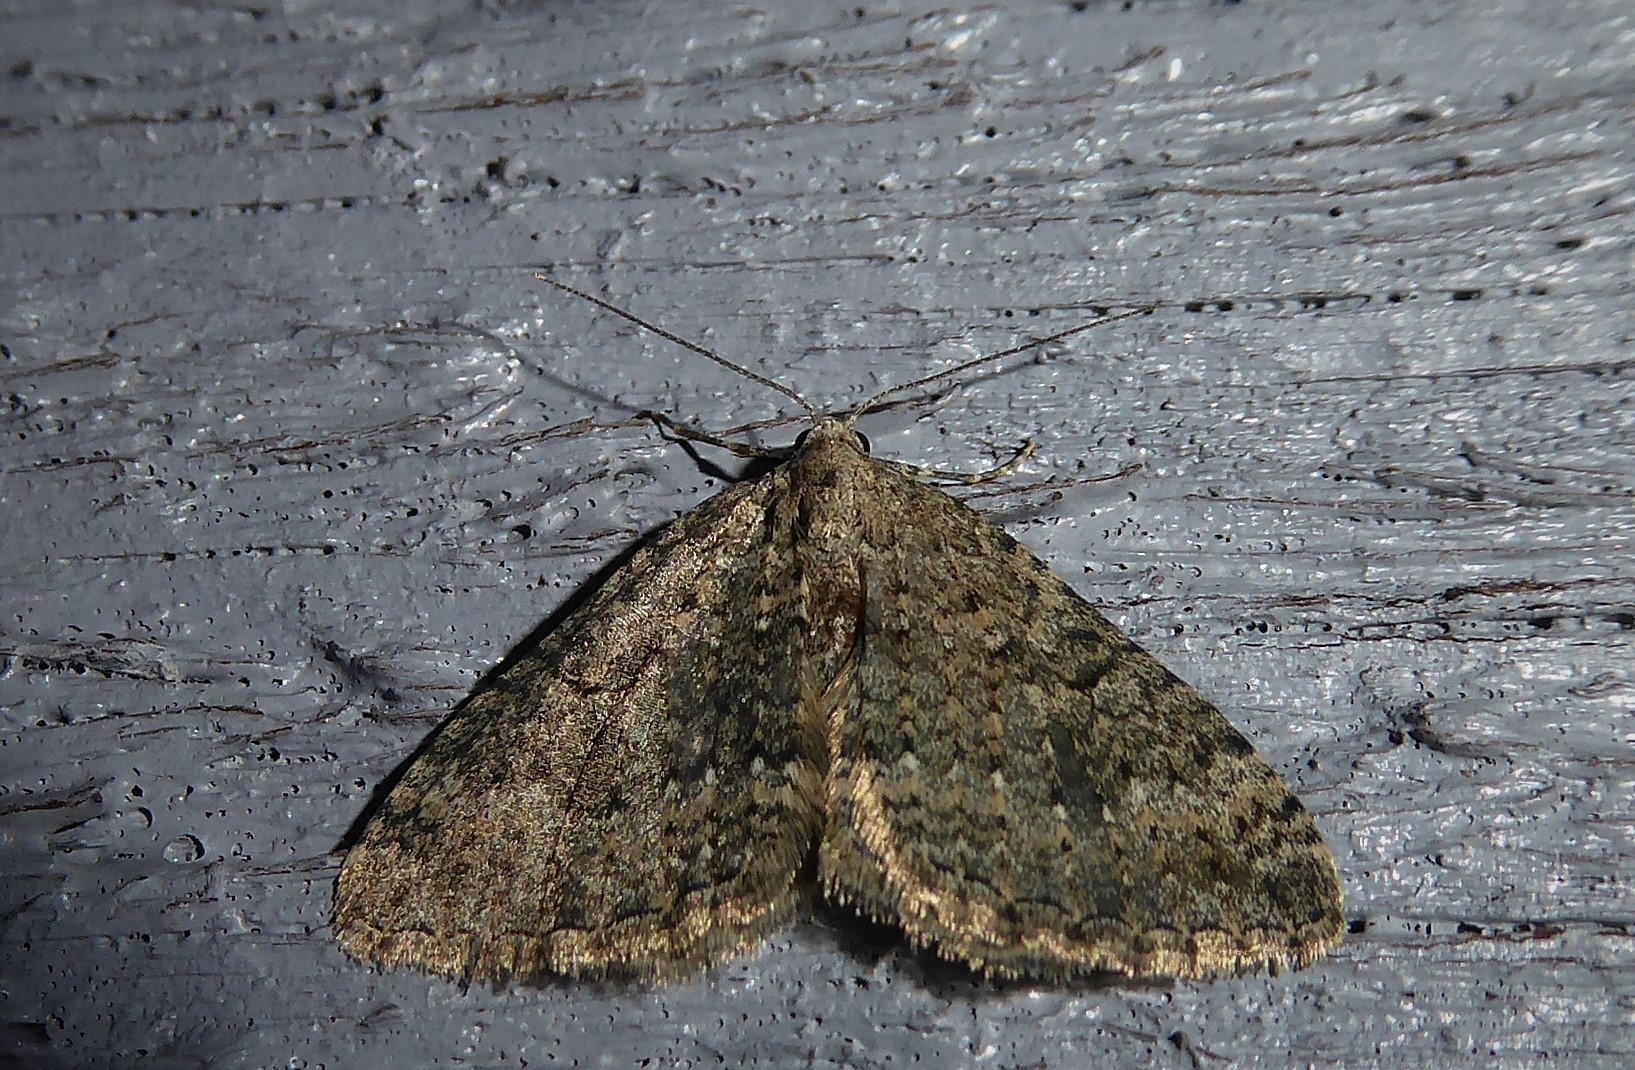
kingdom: Animalia
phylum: Arthropoda
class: Insecta
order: Lepidoptera
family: Geometridae
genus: Helastia
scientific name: Helastia corcularia
